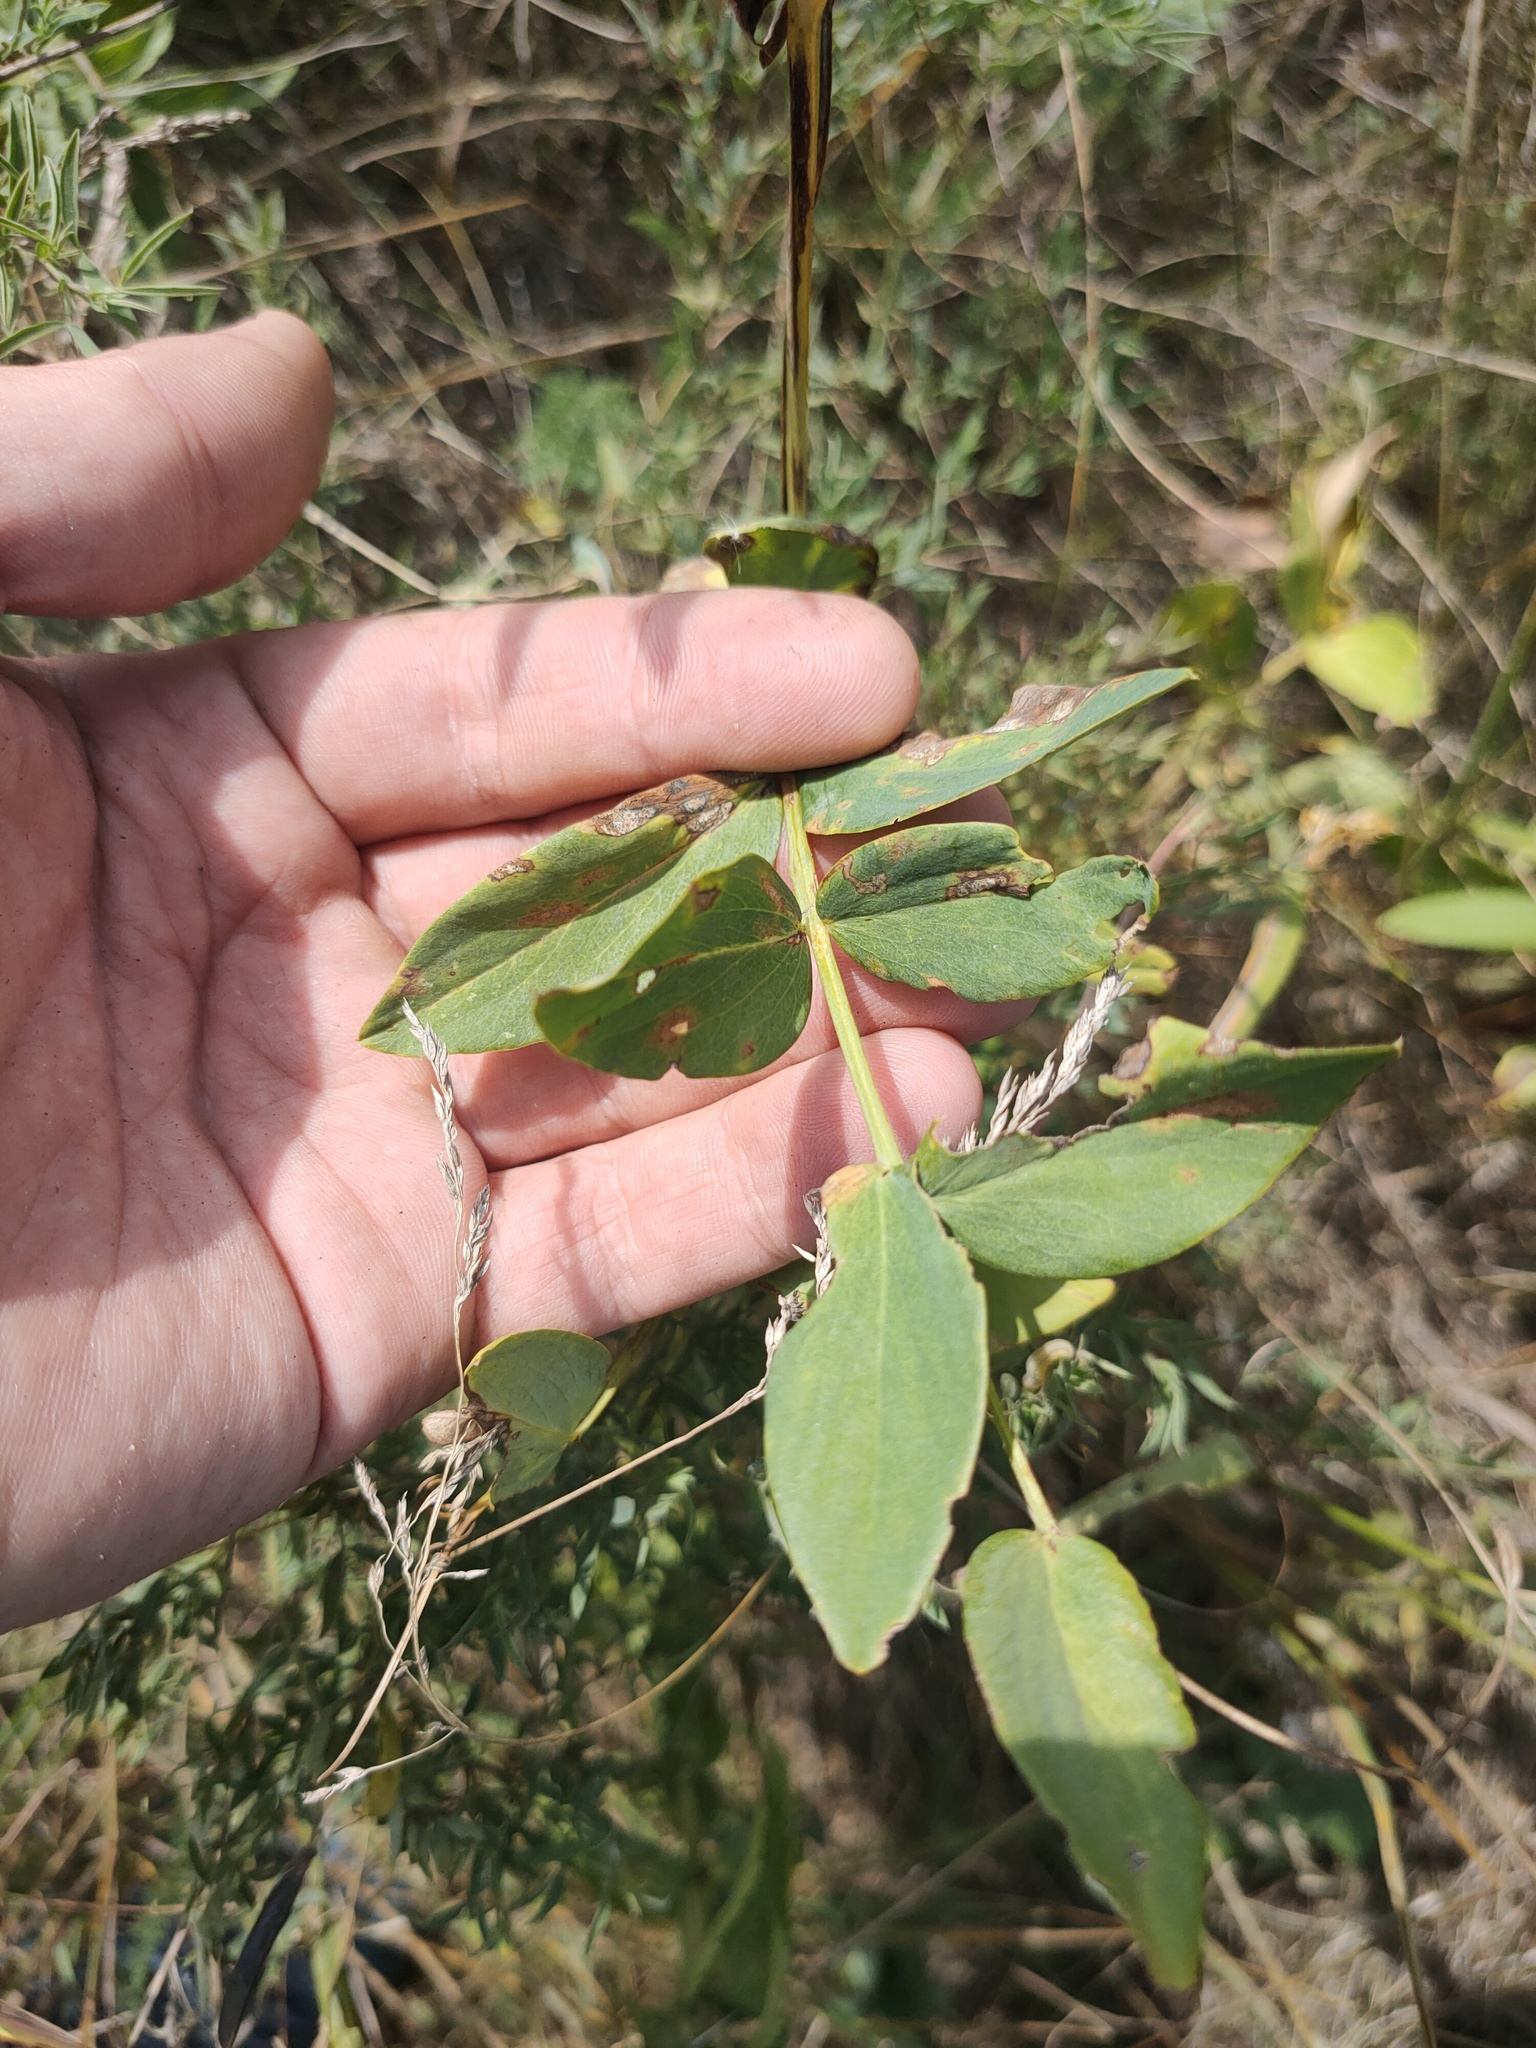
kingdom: Plantae
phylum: Tracheophyta
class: Magnoliopsida
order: Fabales
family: Fabaceae
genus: Lathyrus
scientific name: Lathyrus pisiformis
